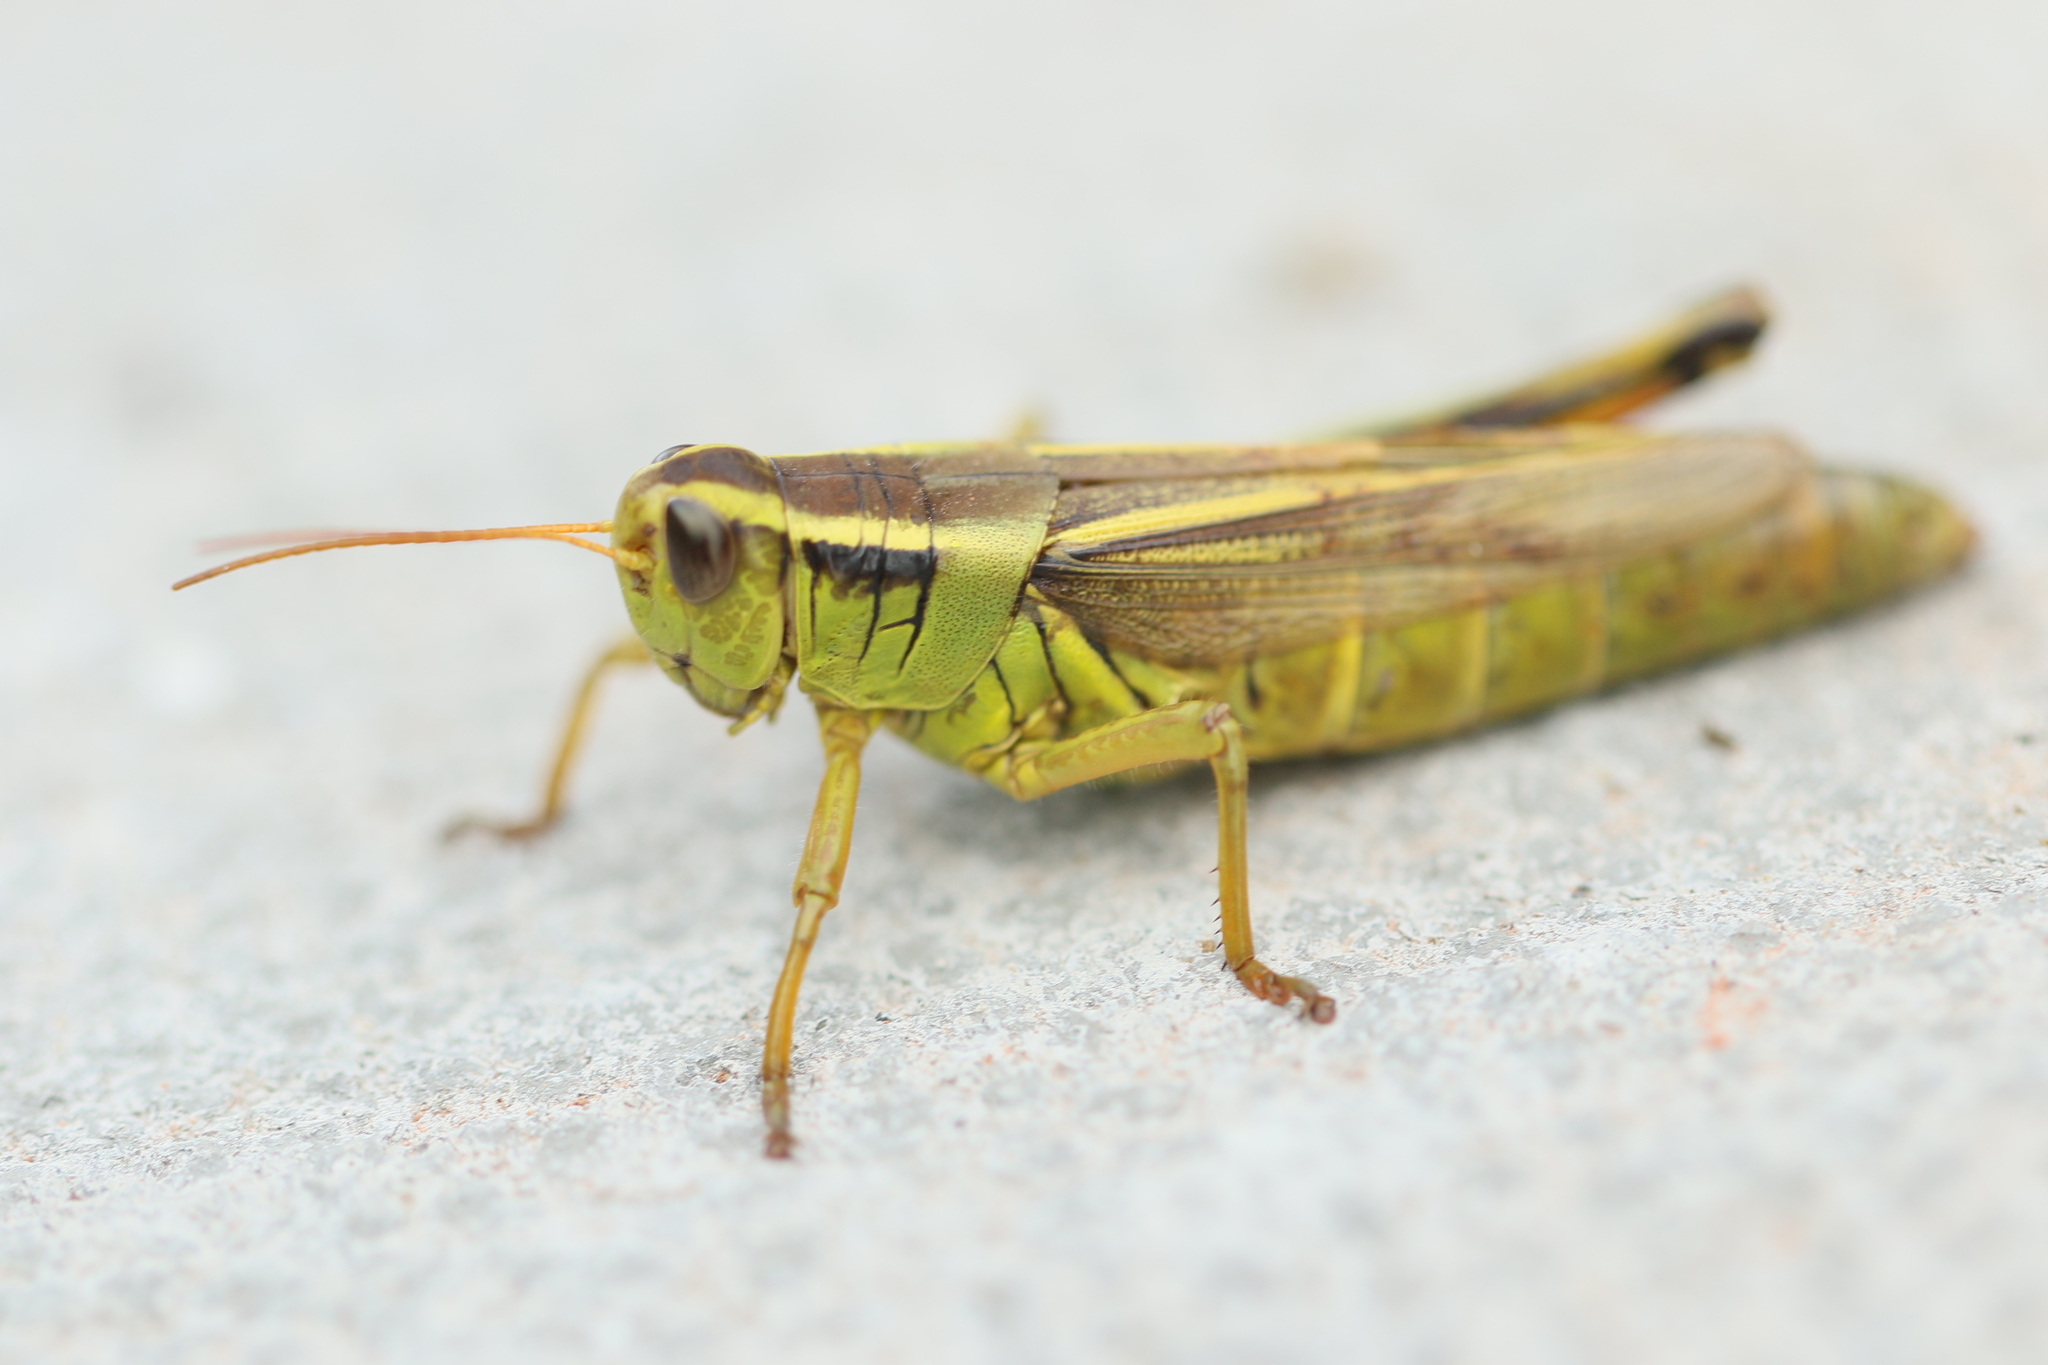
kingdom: Animalia
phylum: Arthropoda
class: Insecta
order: Orthoptera
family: Acrididae
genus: Melanoplus
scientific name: Melanoplus bivittatus
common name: Two-striped grasshopper
